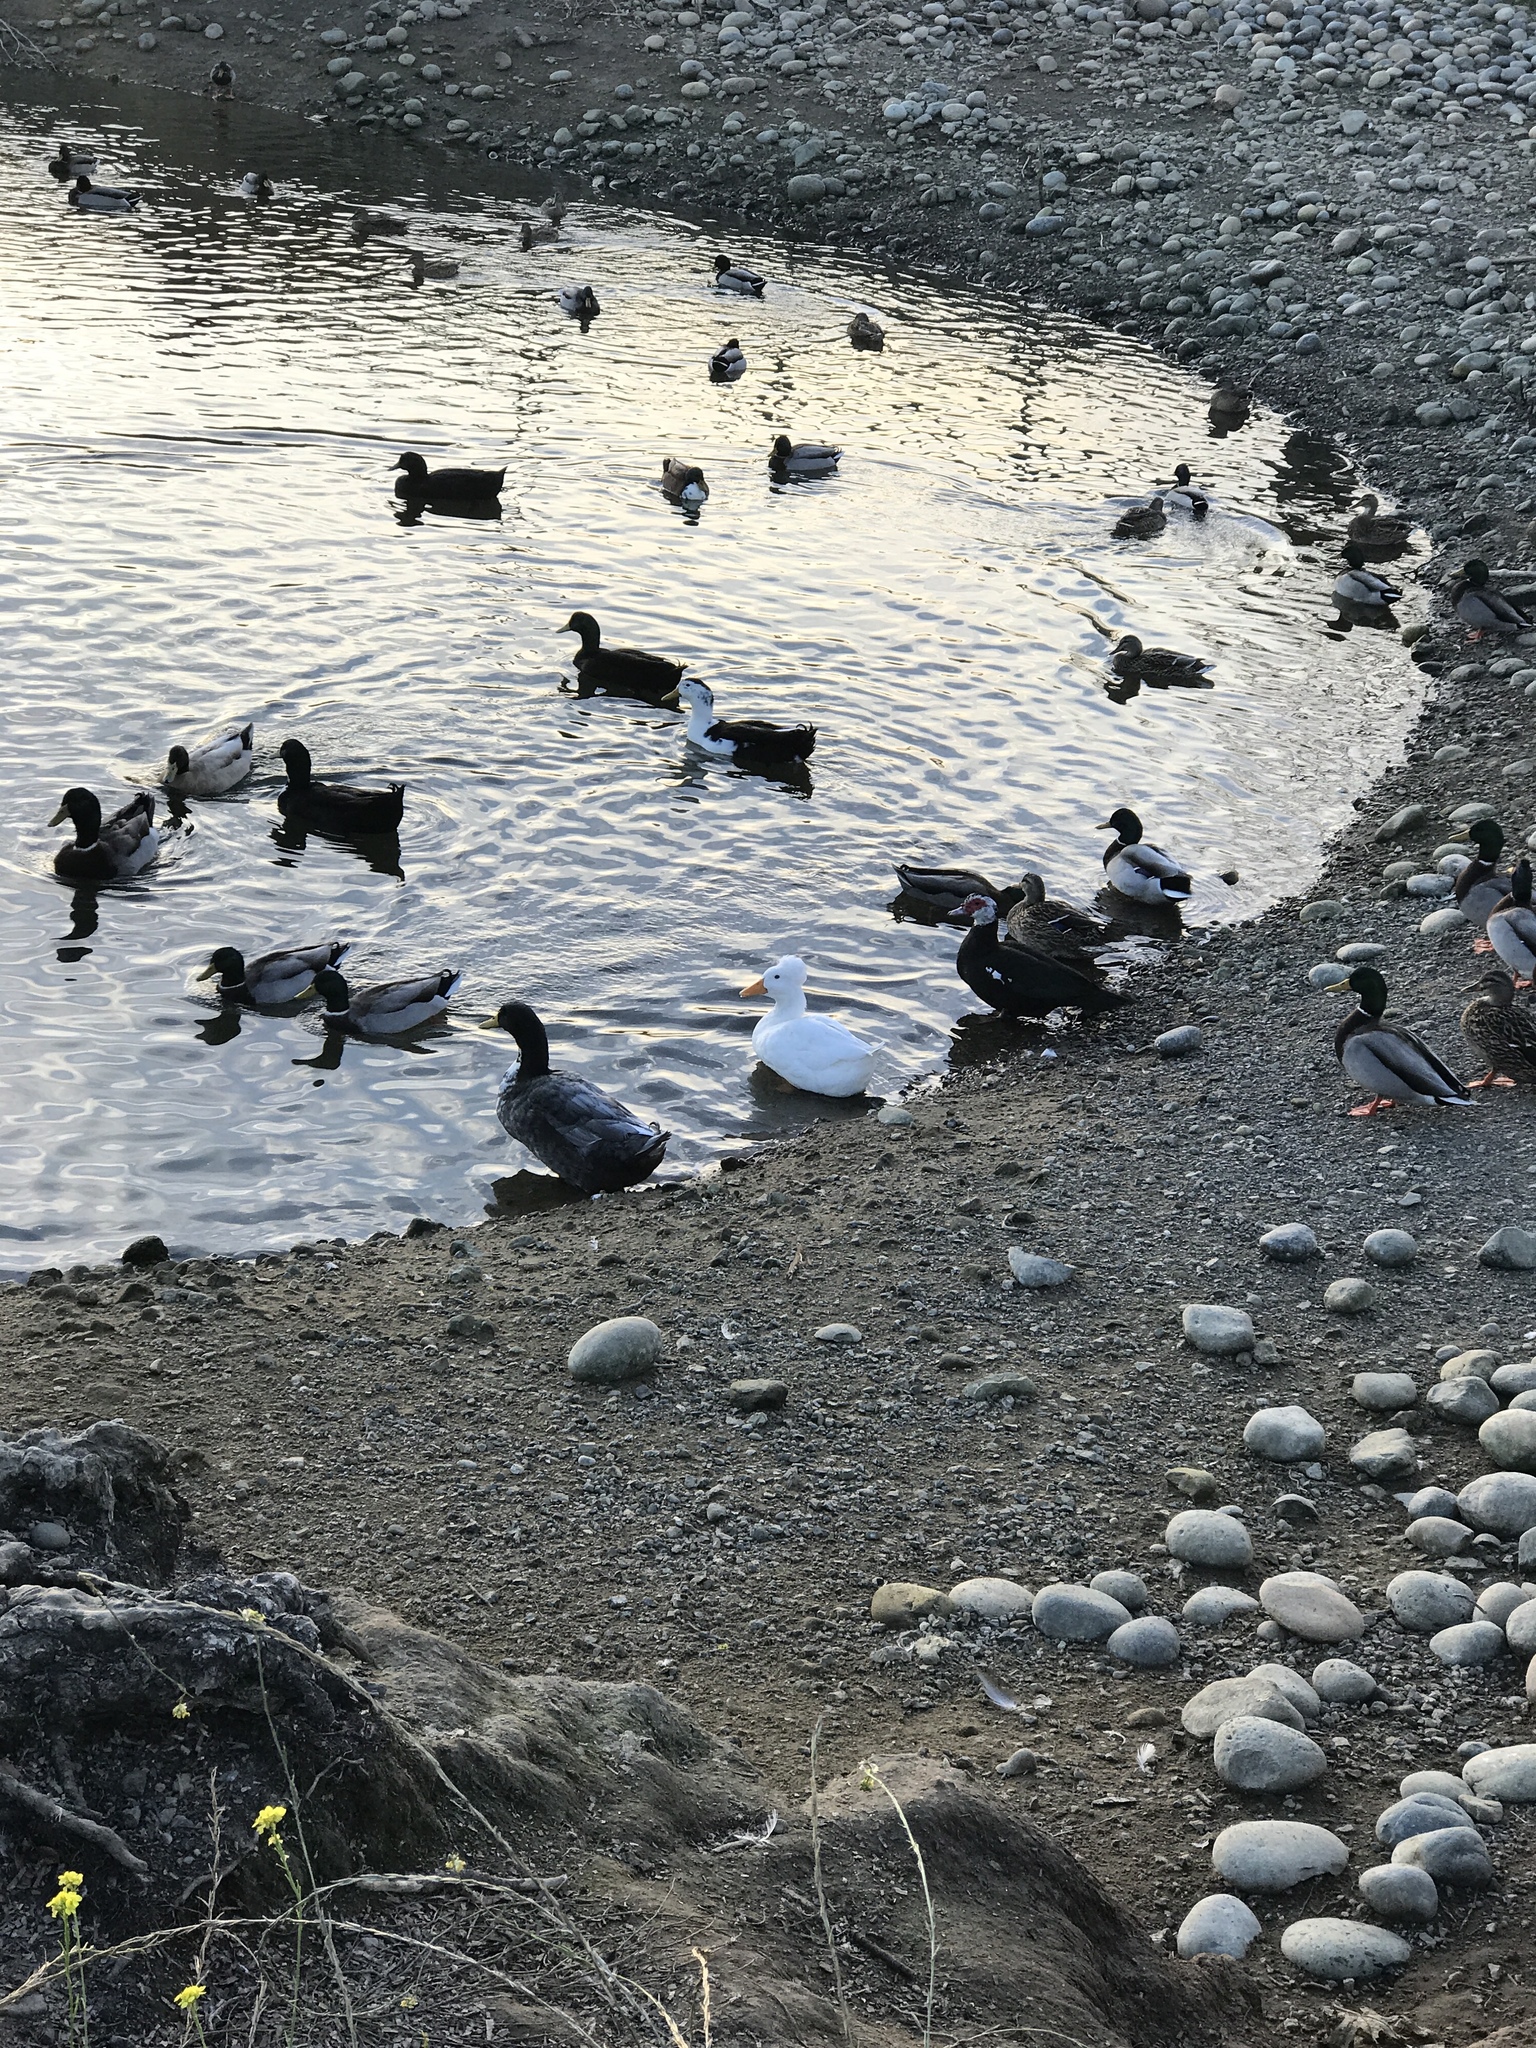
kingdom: Animalia
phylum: Chordata
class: Aves
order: Anseriformes
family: Anatidae
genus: Anas
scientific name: Anas platyrhynchos
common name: Mallard
